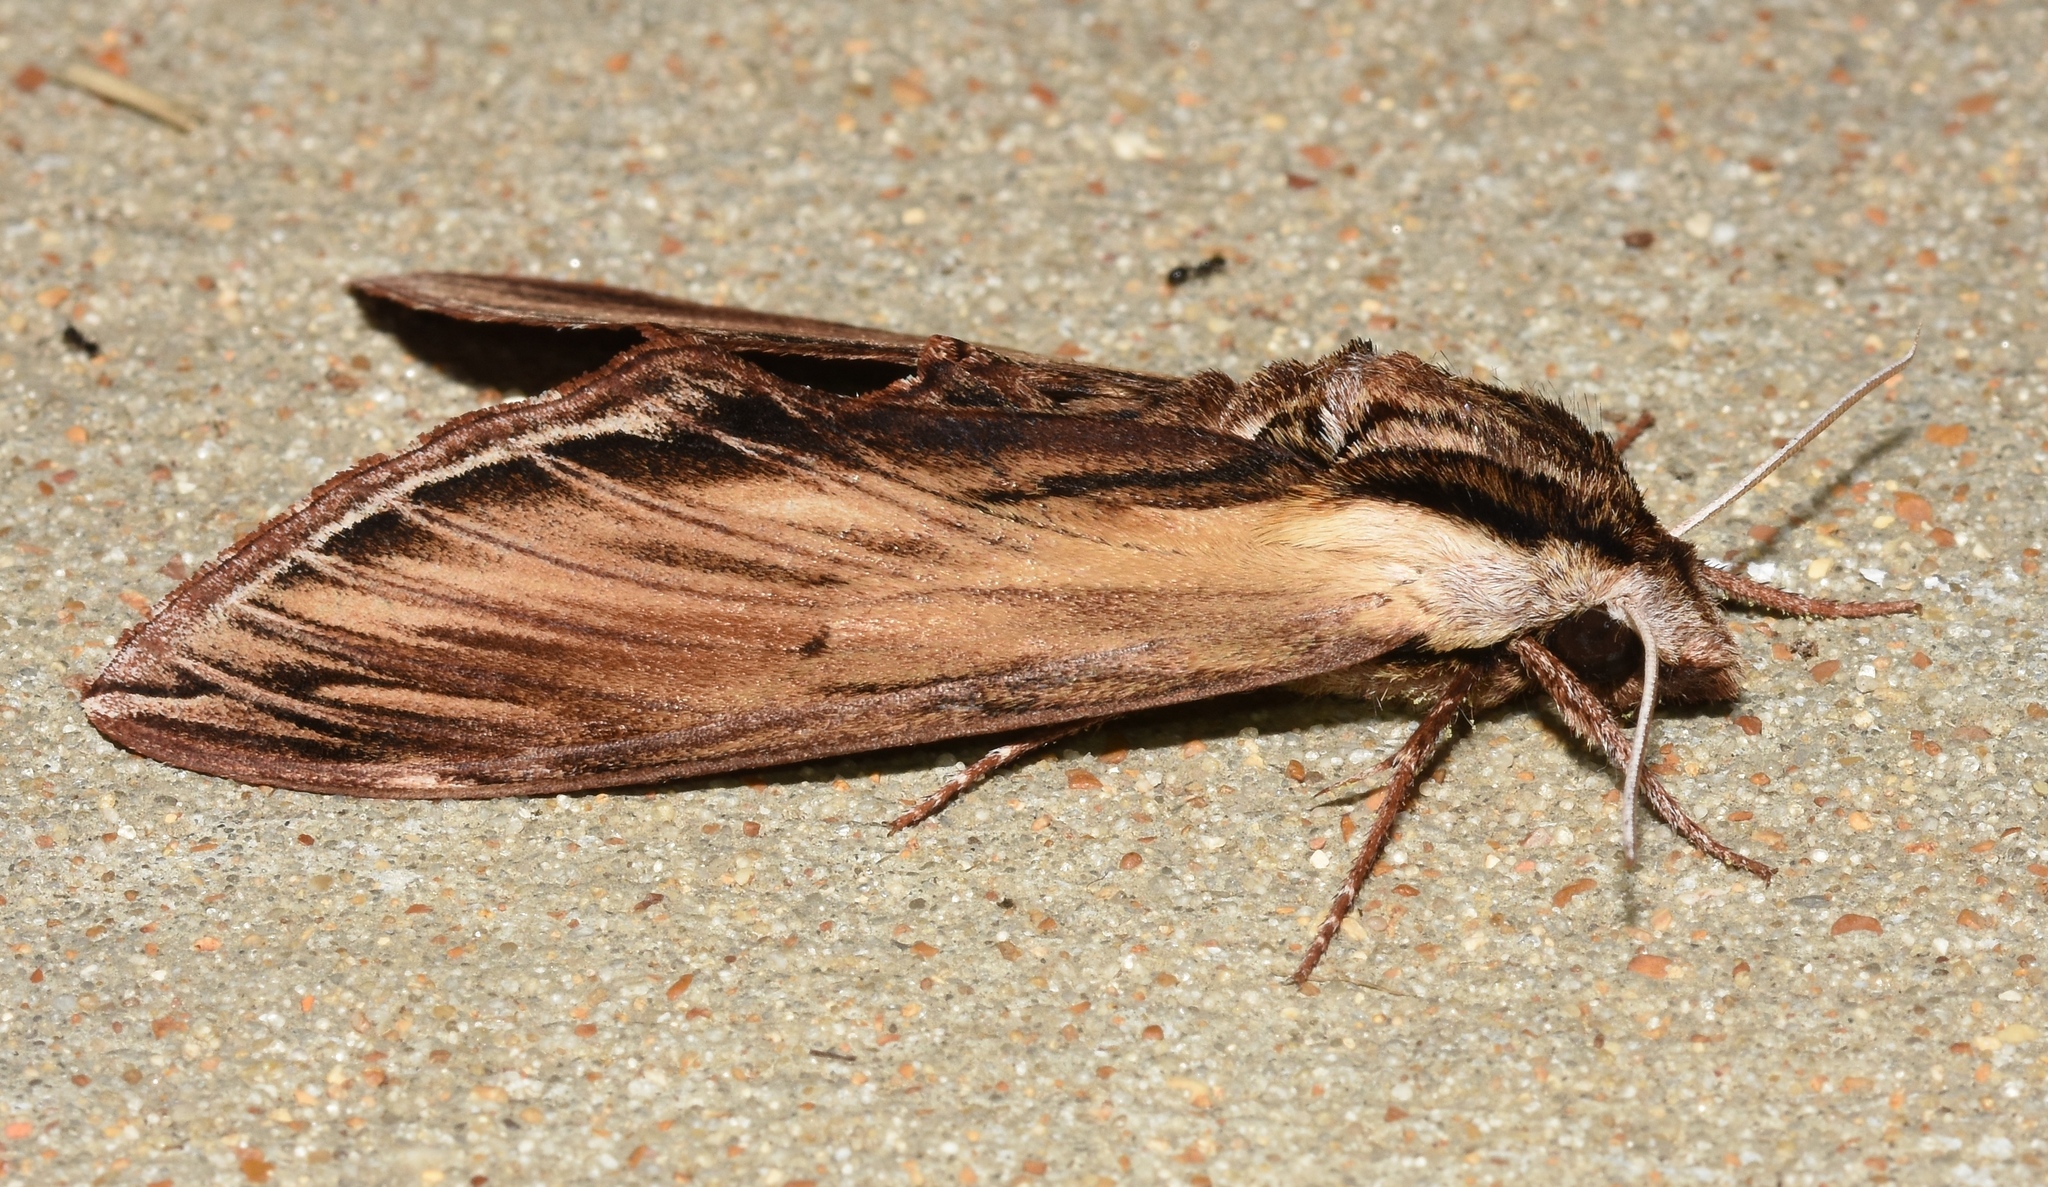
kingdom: Animalia
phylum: Arthropoda
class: Insecta
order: Lepidoptera
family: Sphingidae
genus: Sphinx
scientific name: Sphinx kalmiae
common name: Laurel sphinx
